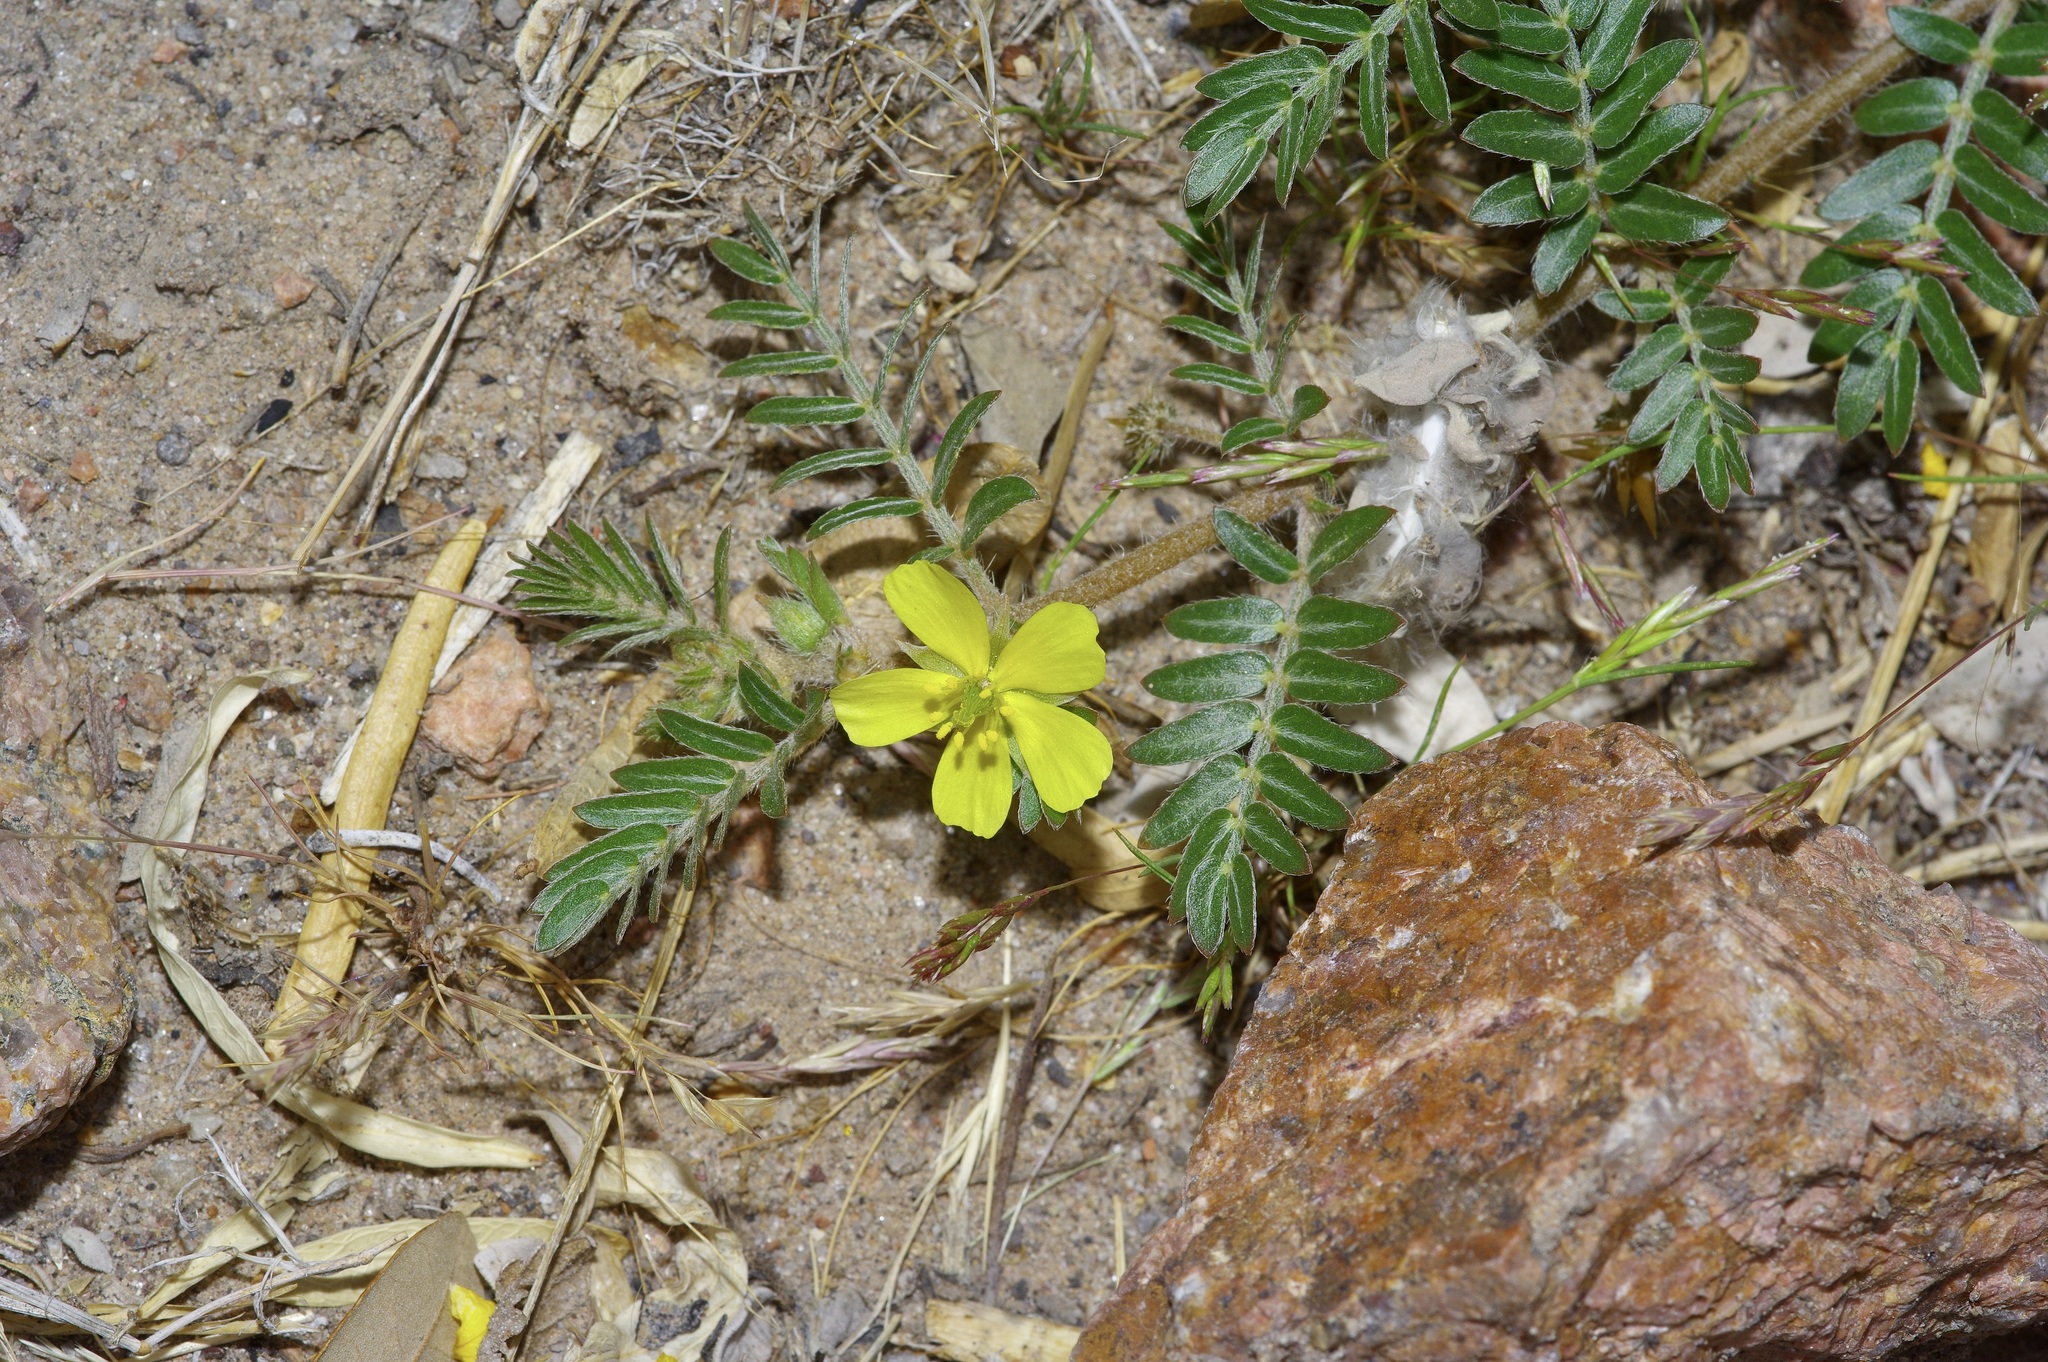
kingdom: Plantae
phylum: Tracheophyta
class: Magnoliopsida
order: Zygophyllales
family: Zygophyllaceae
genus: Tribulus
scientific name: Tribulus terrestris
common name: Puncturevine
